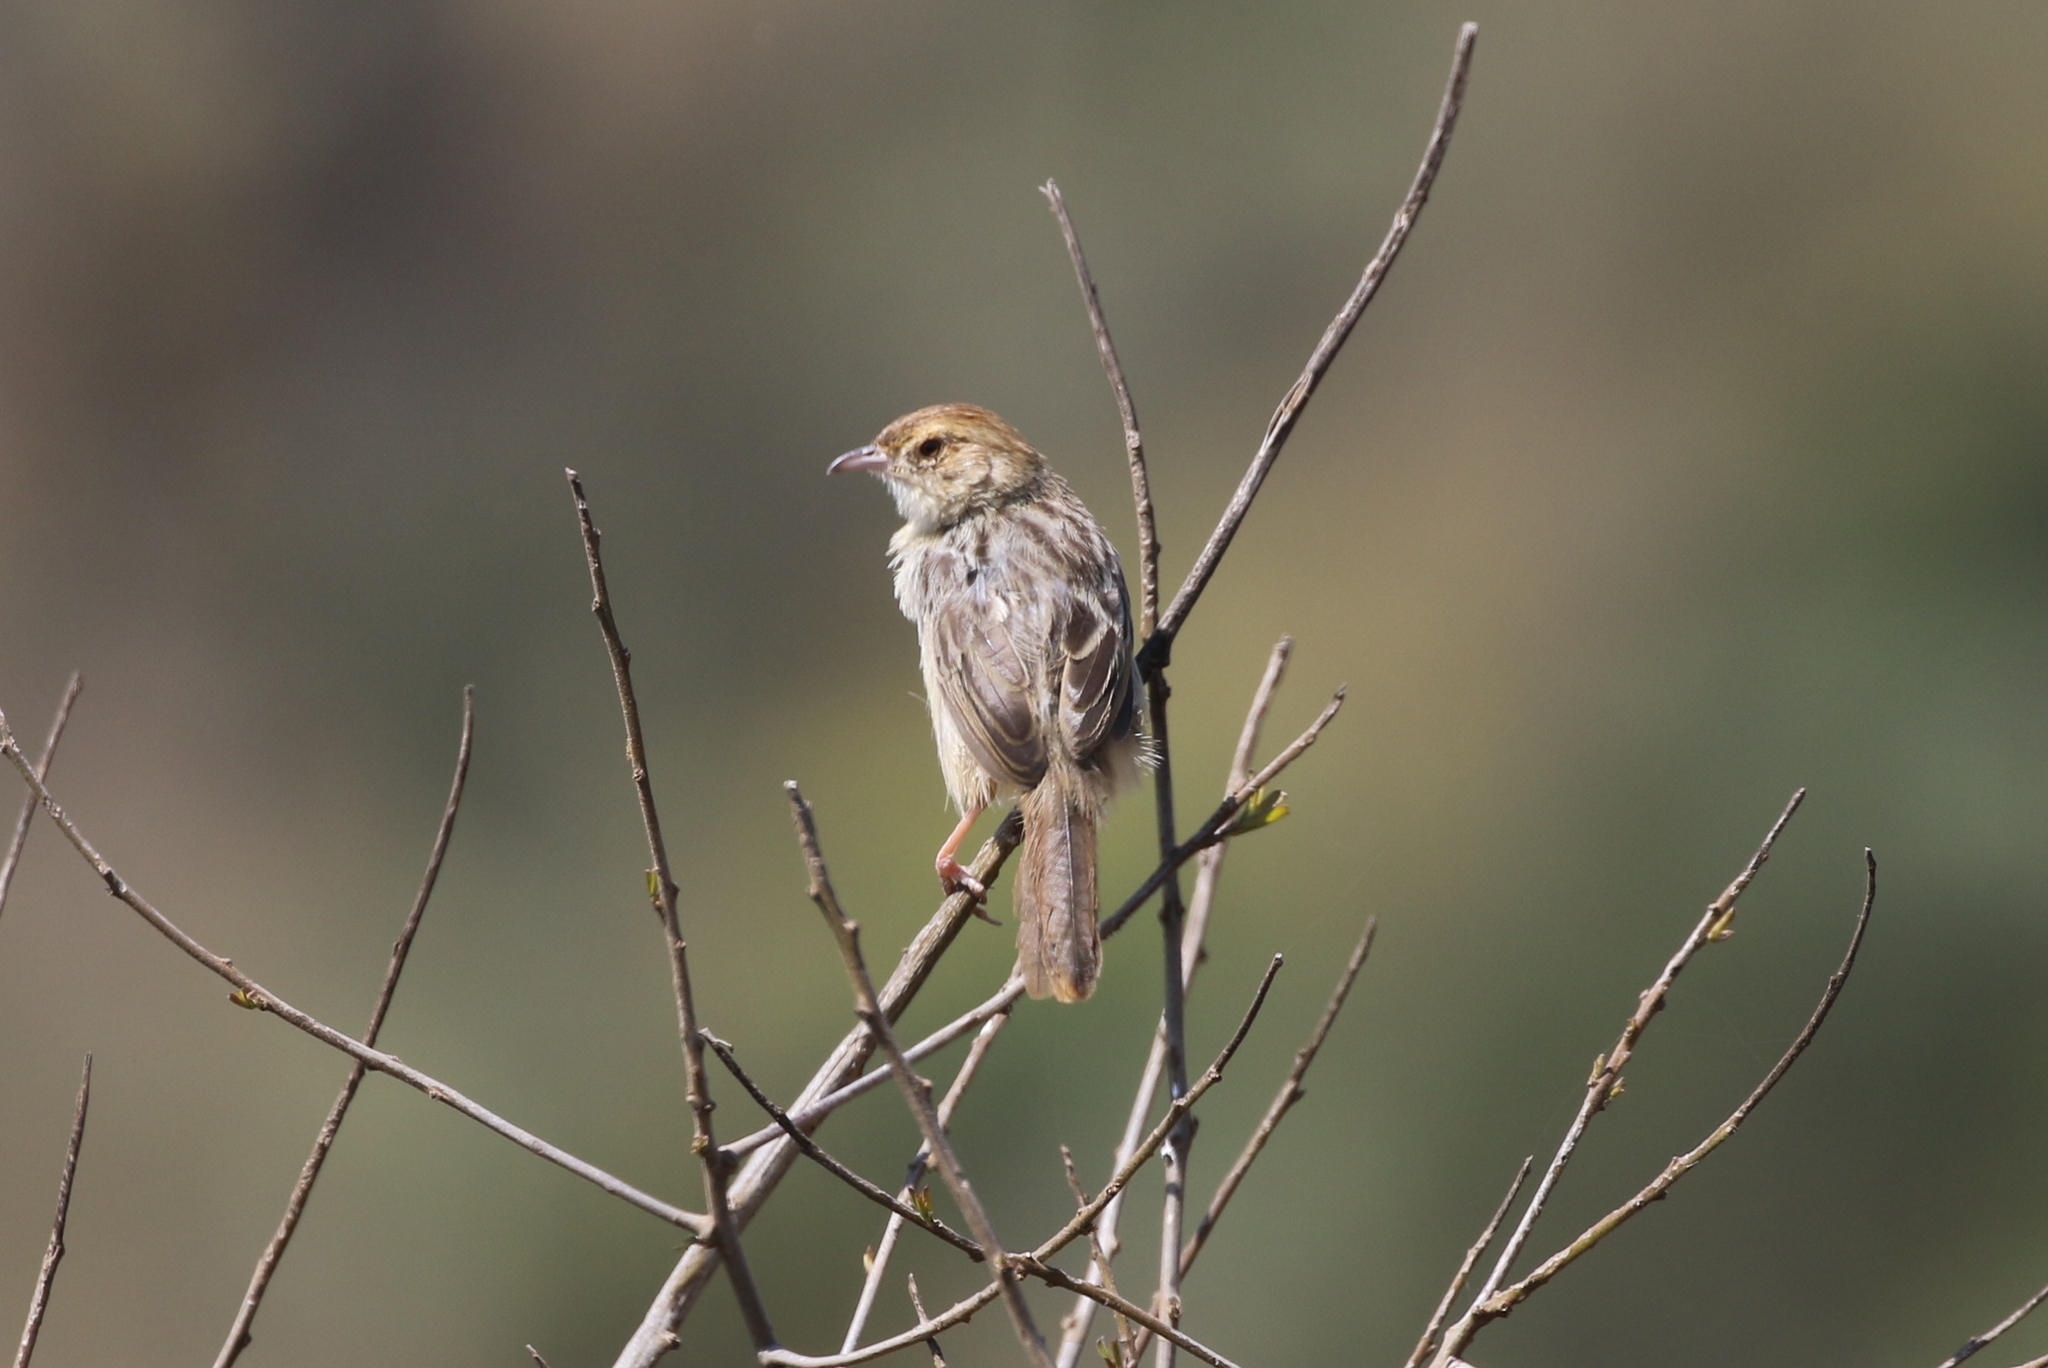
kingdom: Animalia
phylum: Chordata
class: Aves
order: Passeriformes
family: Cisticolidae
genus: Cisticola
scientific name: Cisticola chiniana
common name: Rattling cisticola
